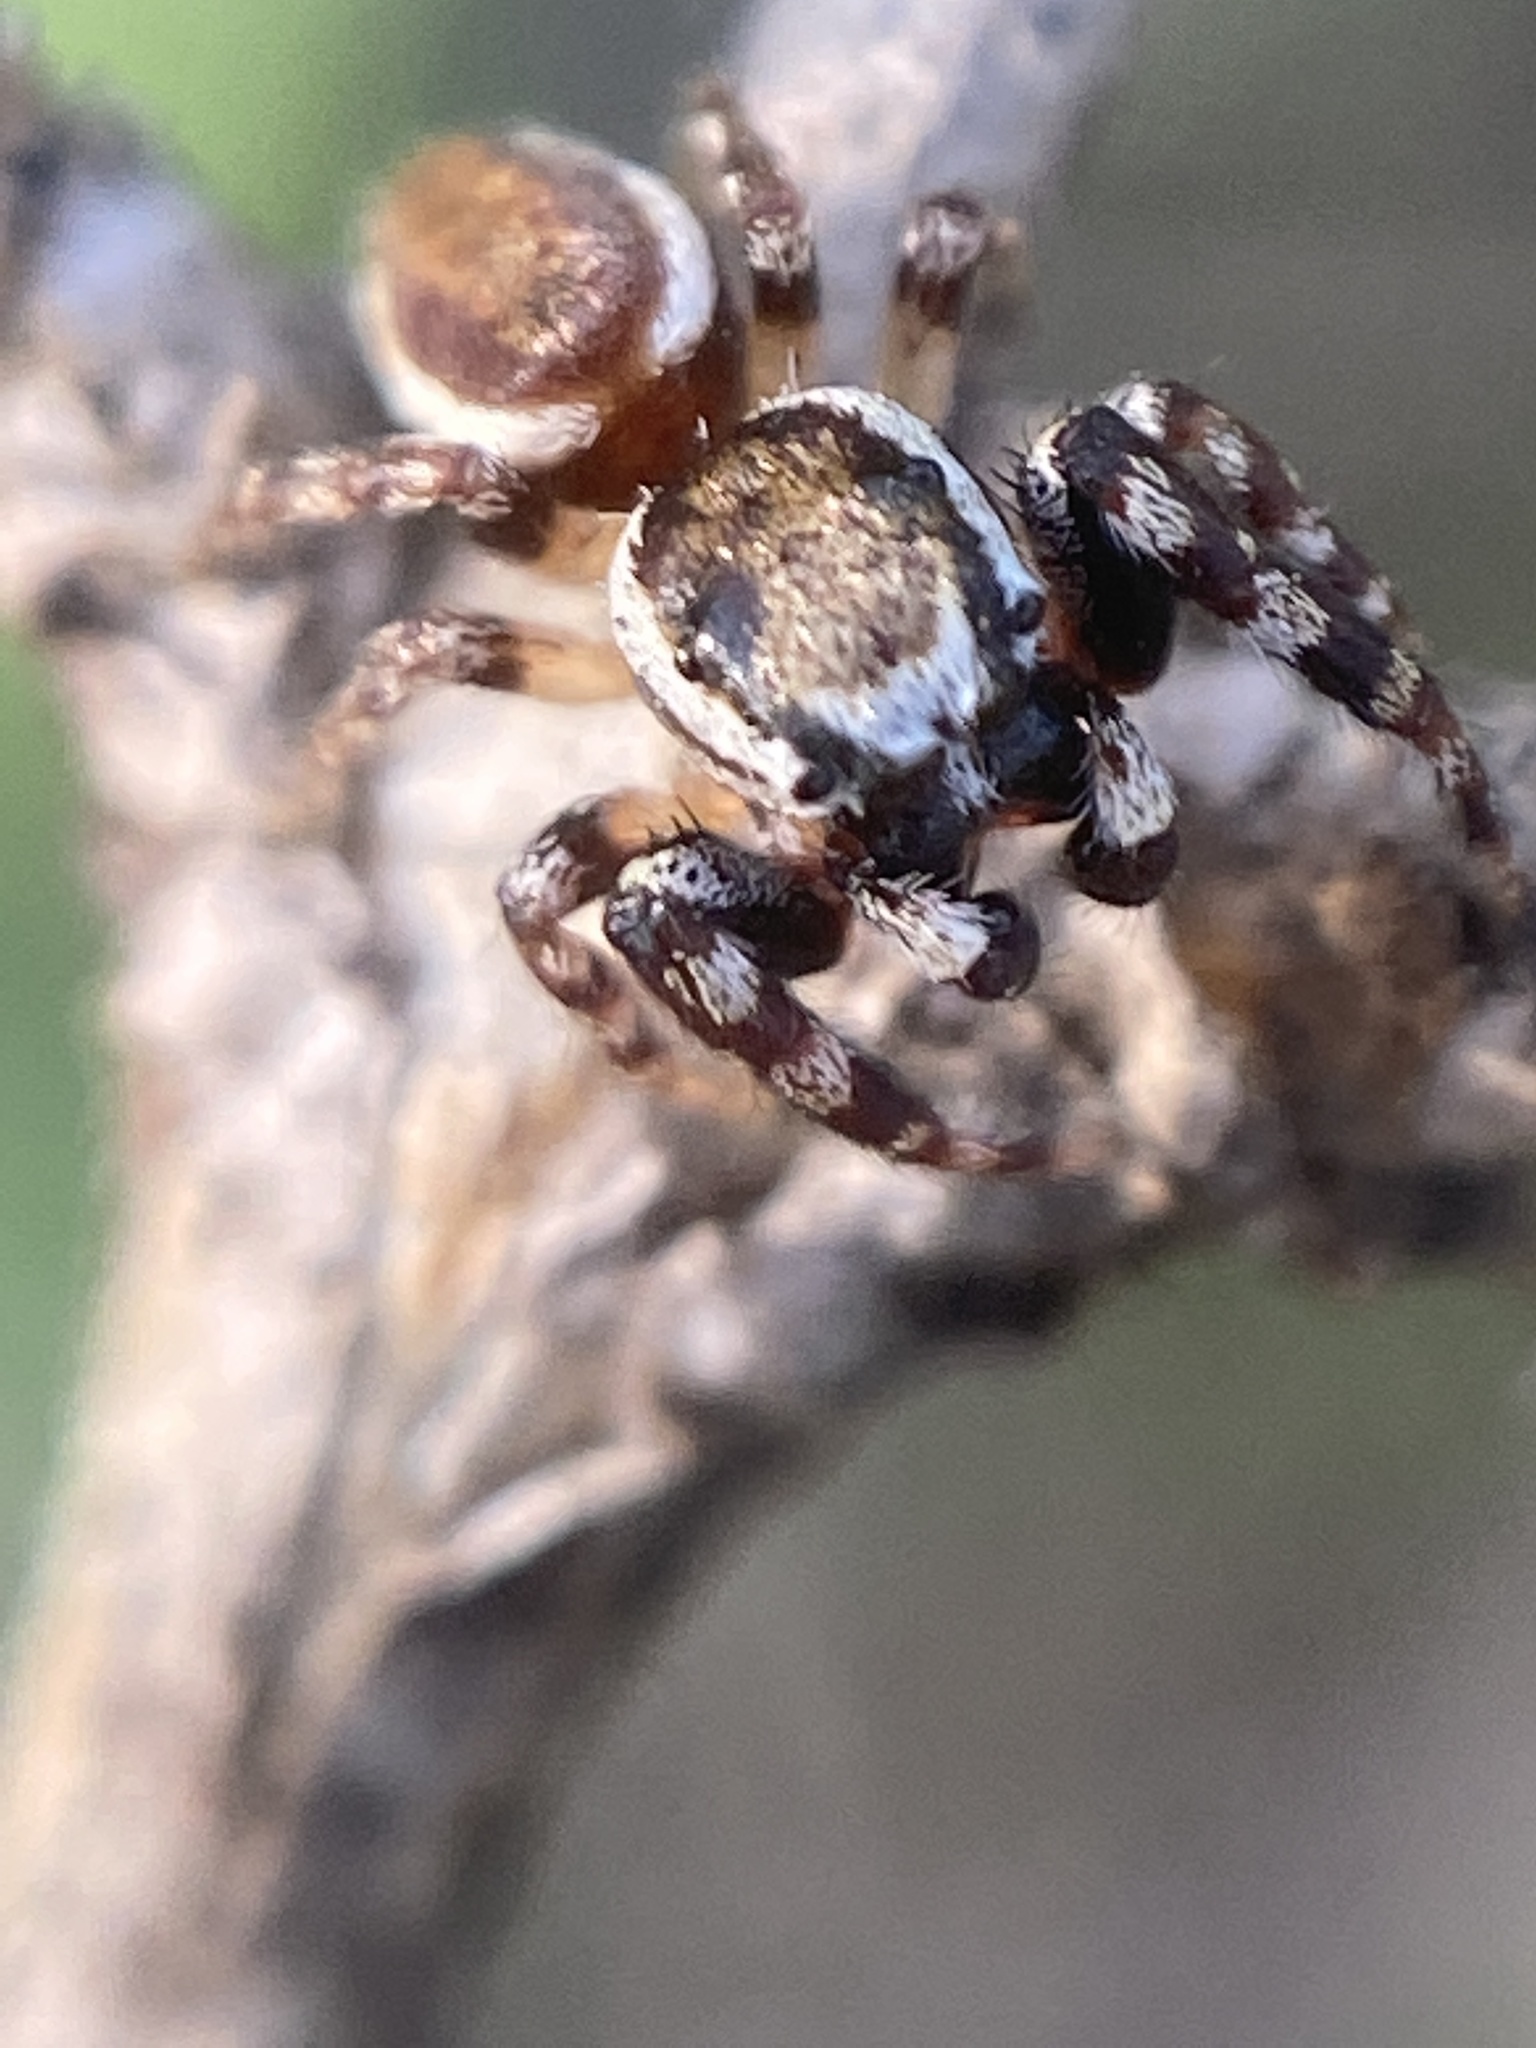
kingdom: Animalia
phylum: Arthropoda
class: Arachnida
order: Araneae
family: Salticidae
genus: Pelegrina
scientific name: Pelegrina proterva
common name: Common white-cheeked jumping spider
